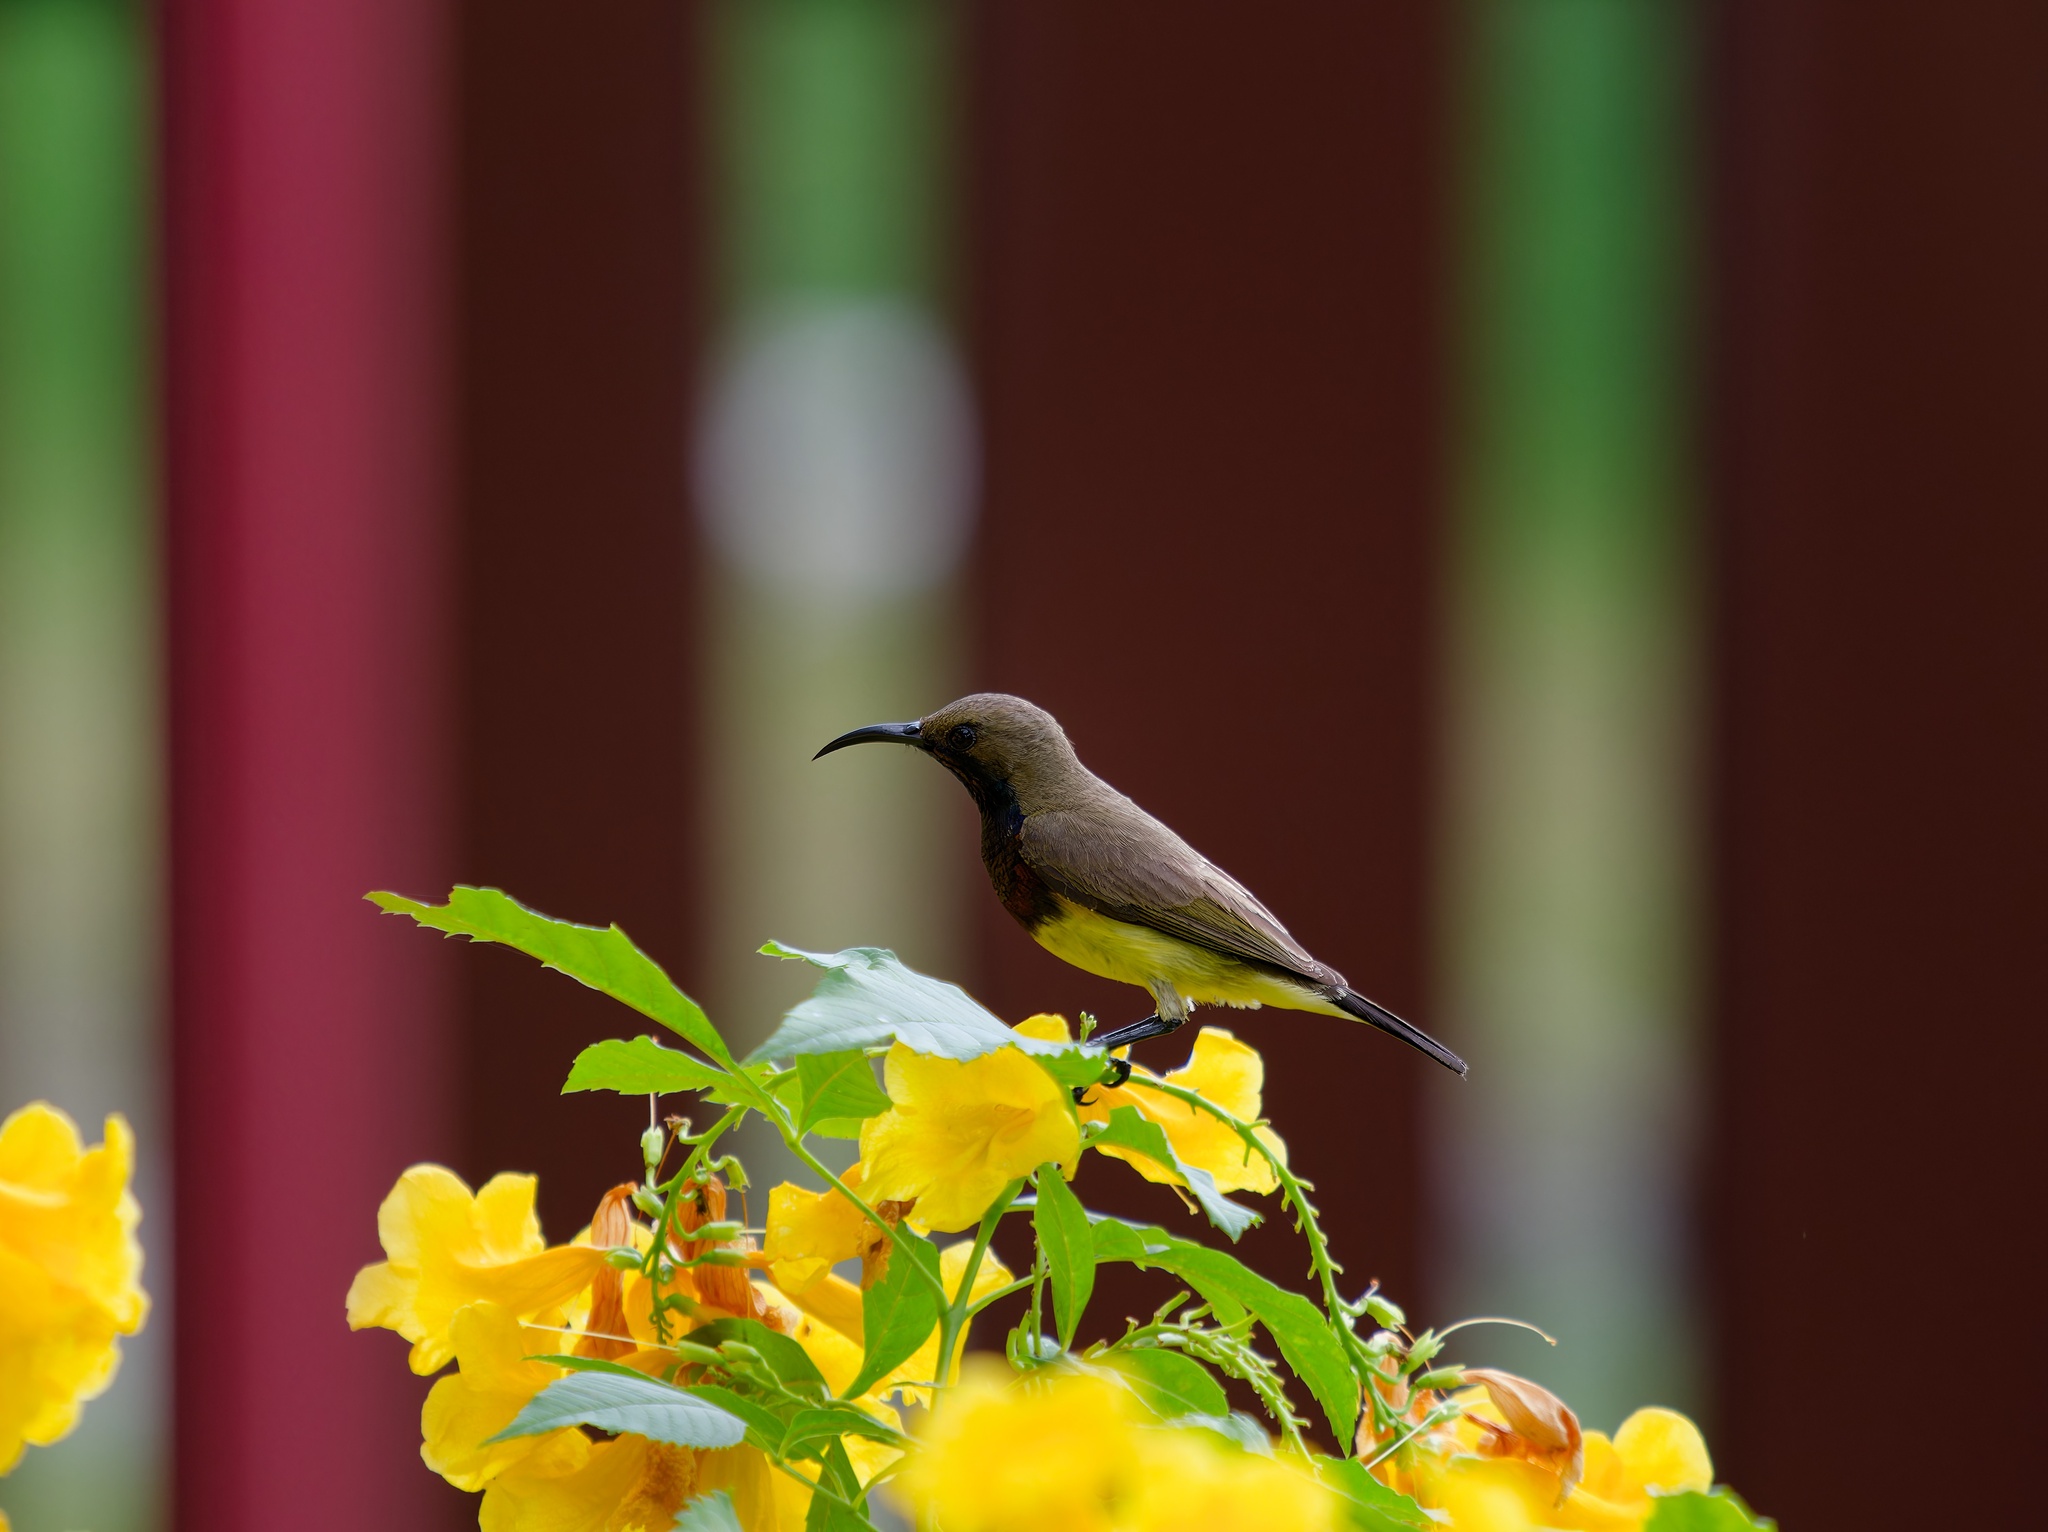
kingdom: Animalia
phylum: Chordata
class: Aves
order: Passeriformes
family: Nectariniidae
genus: Cinnyris
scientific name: Cinnyris
